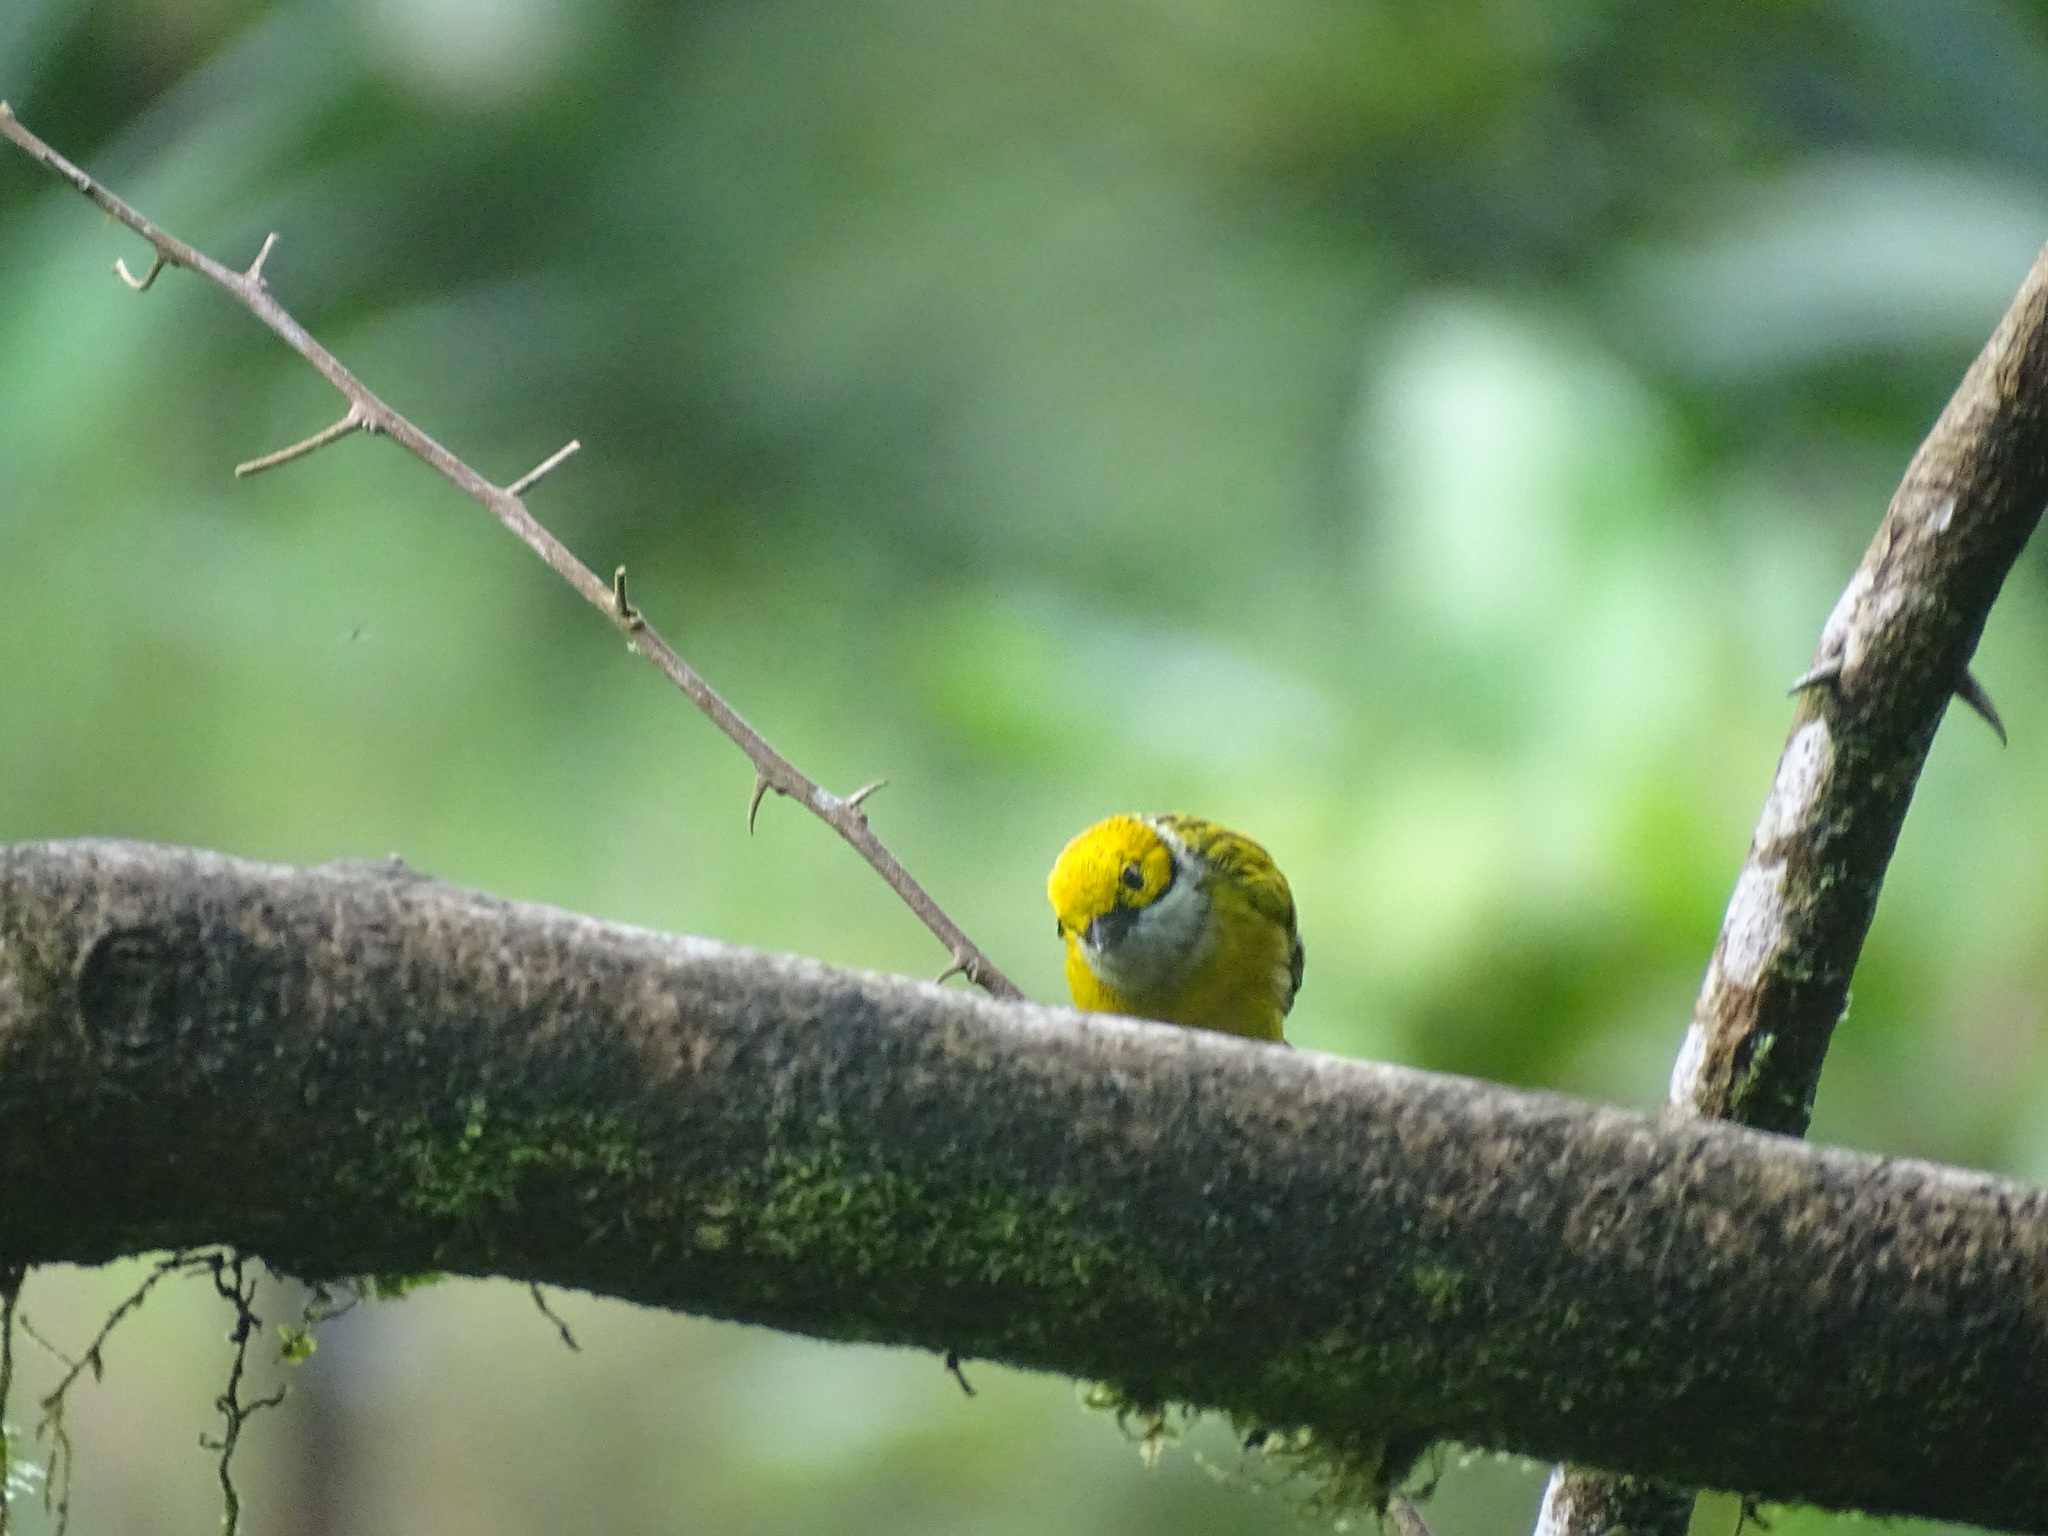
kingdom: Animalia
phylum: Chordata
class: Aves
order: Passeriformes
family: Thraupidae
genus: Tangara
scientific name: Tangara icterocephala
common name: Silver-throated tanager
